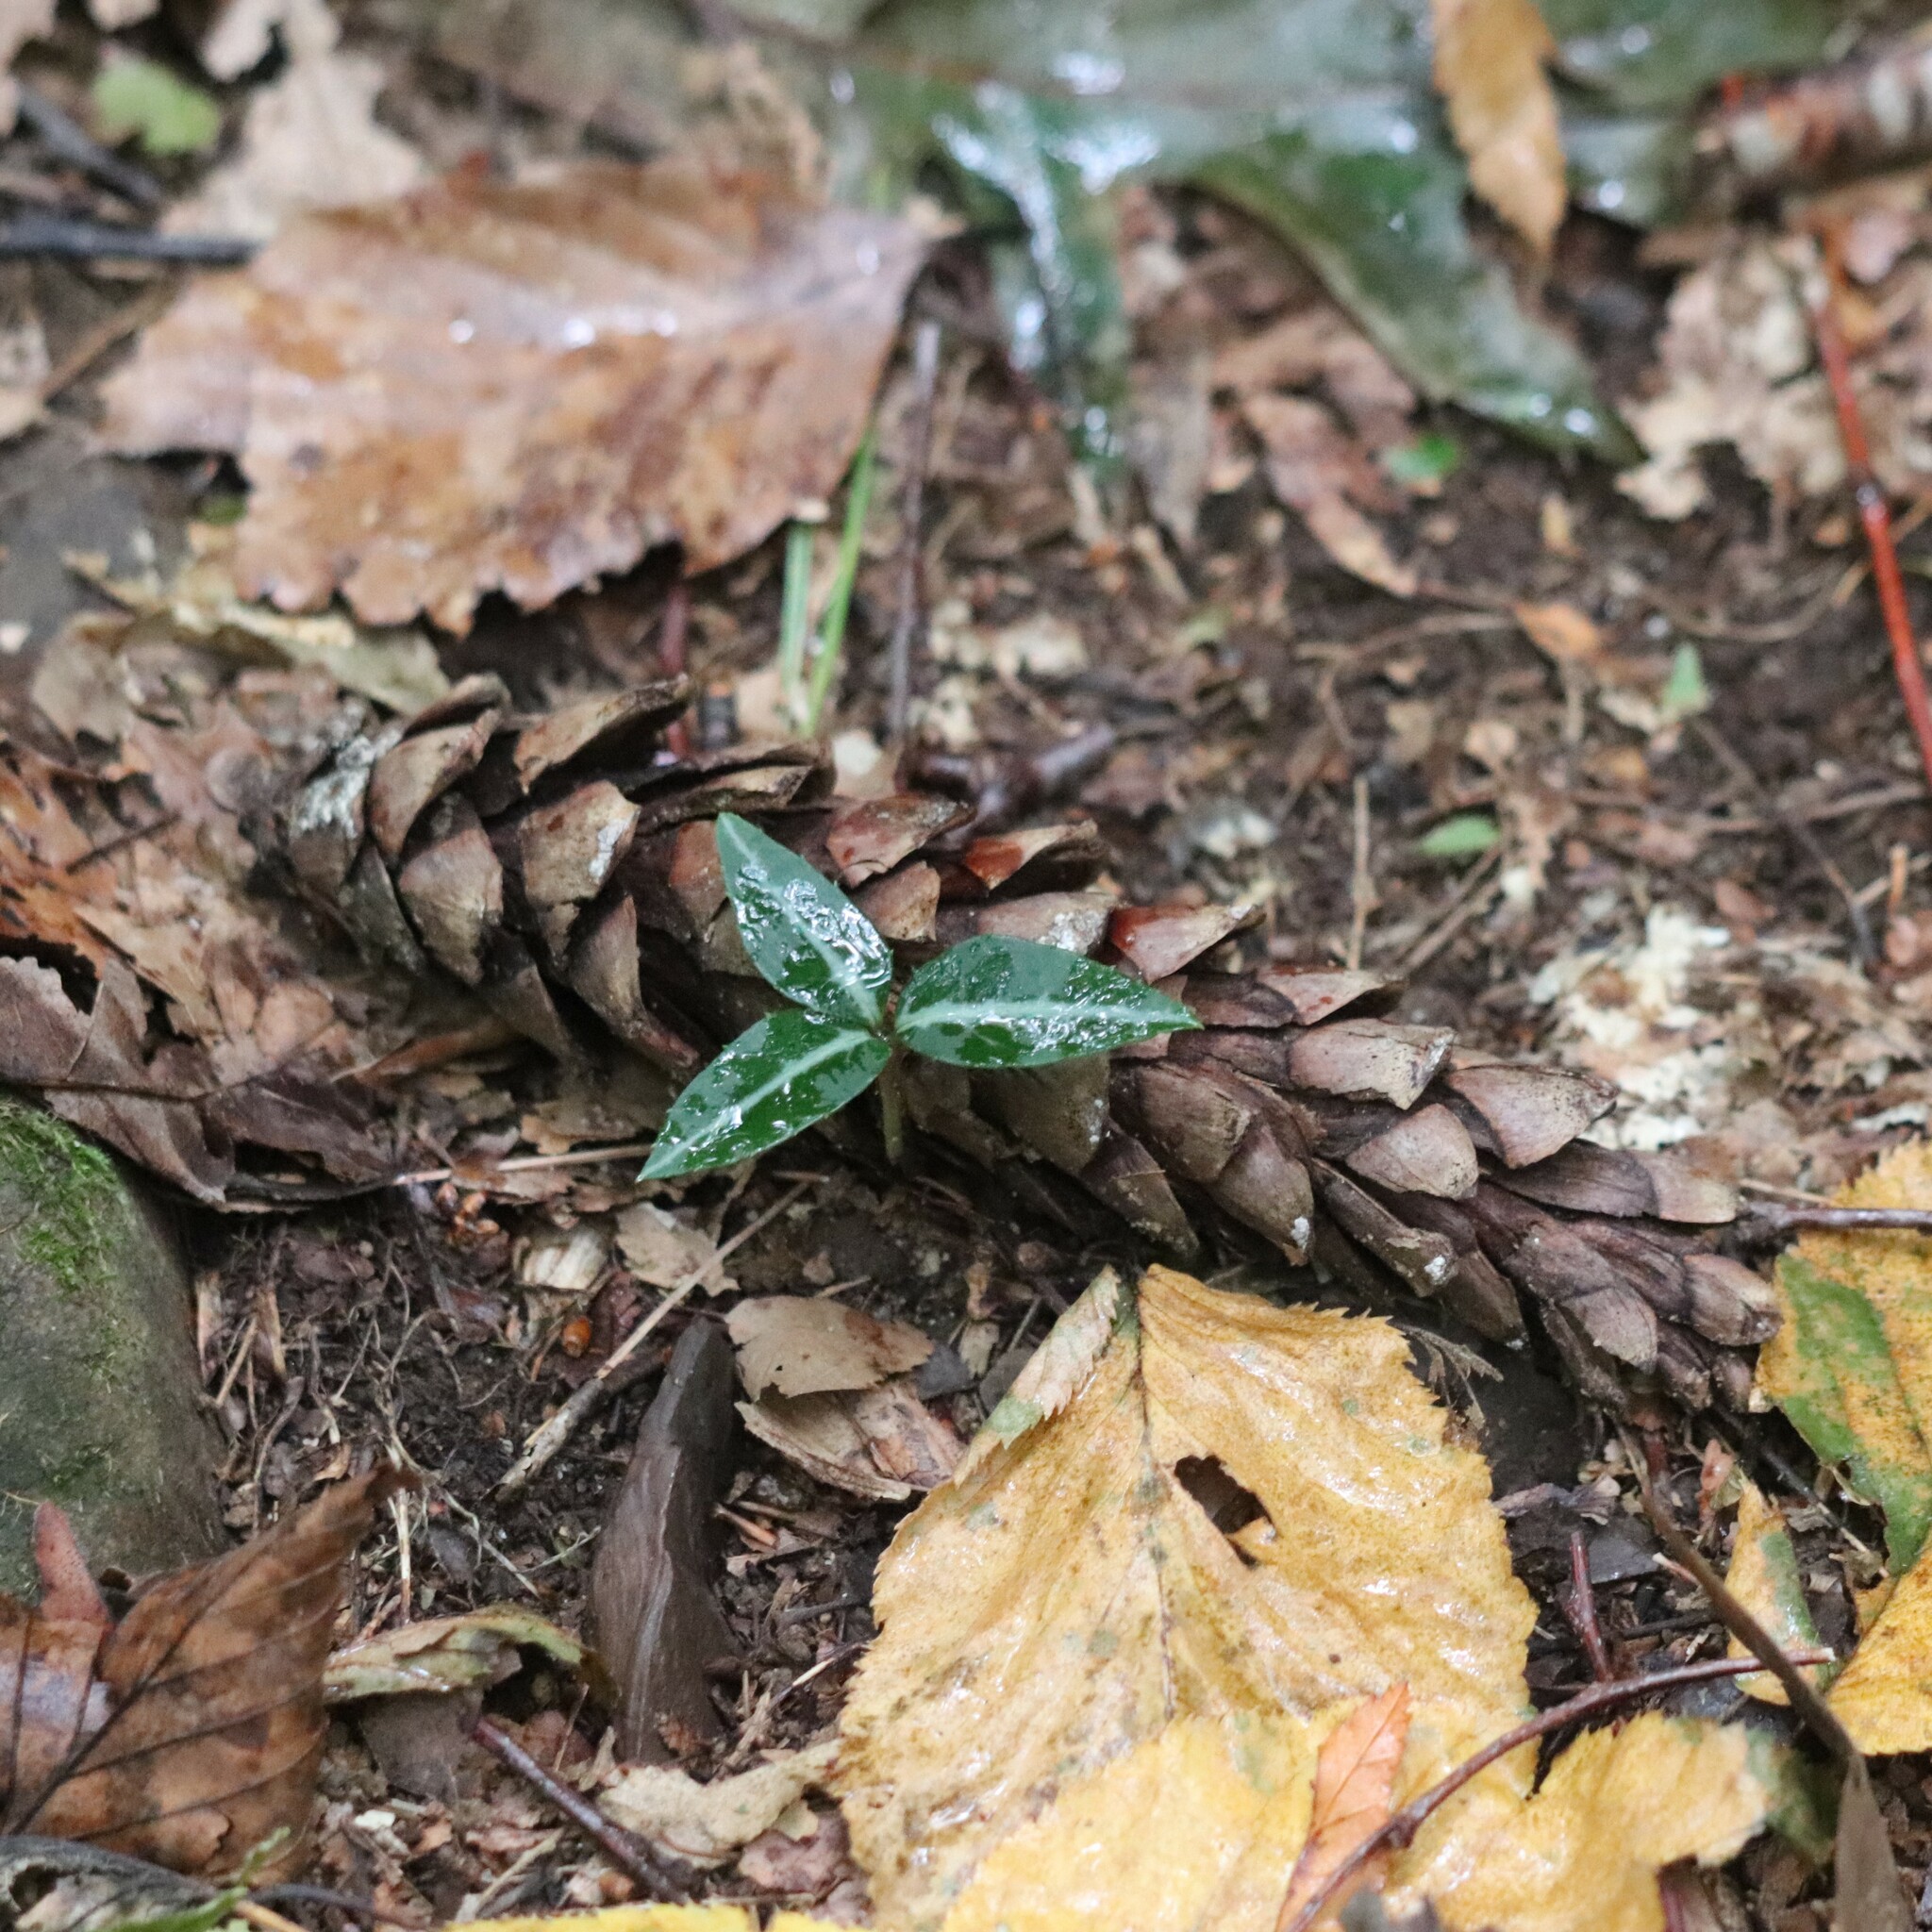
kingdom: Plantae
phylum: Tracheophyta
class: Magnoliopsida
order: Ericales
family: Ericaceae
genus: Chimaphila
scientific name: Chimaphila maculata
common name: Spotted pipsissewa
